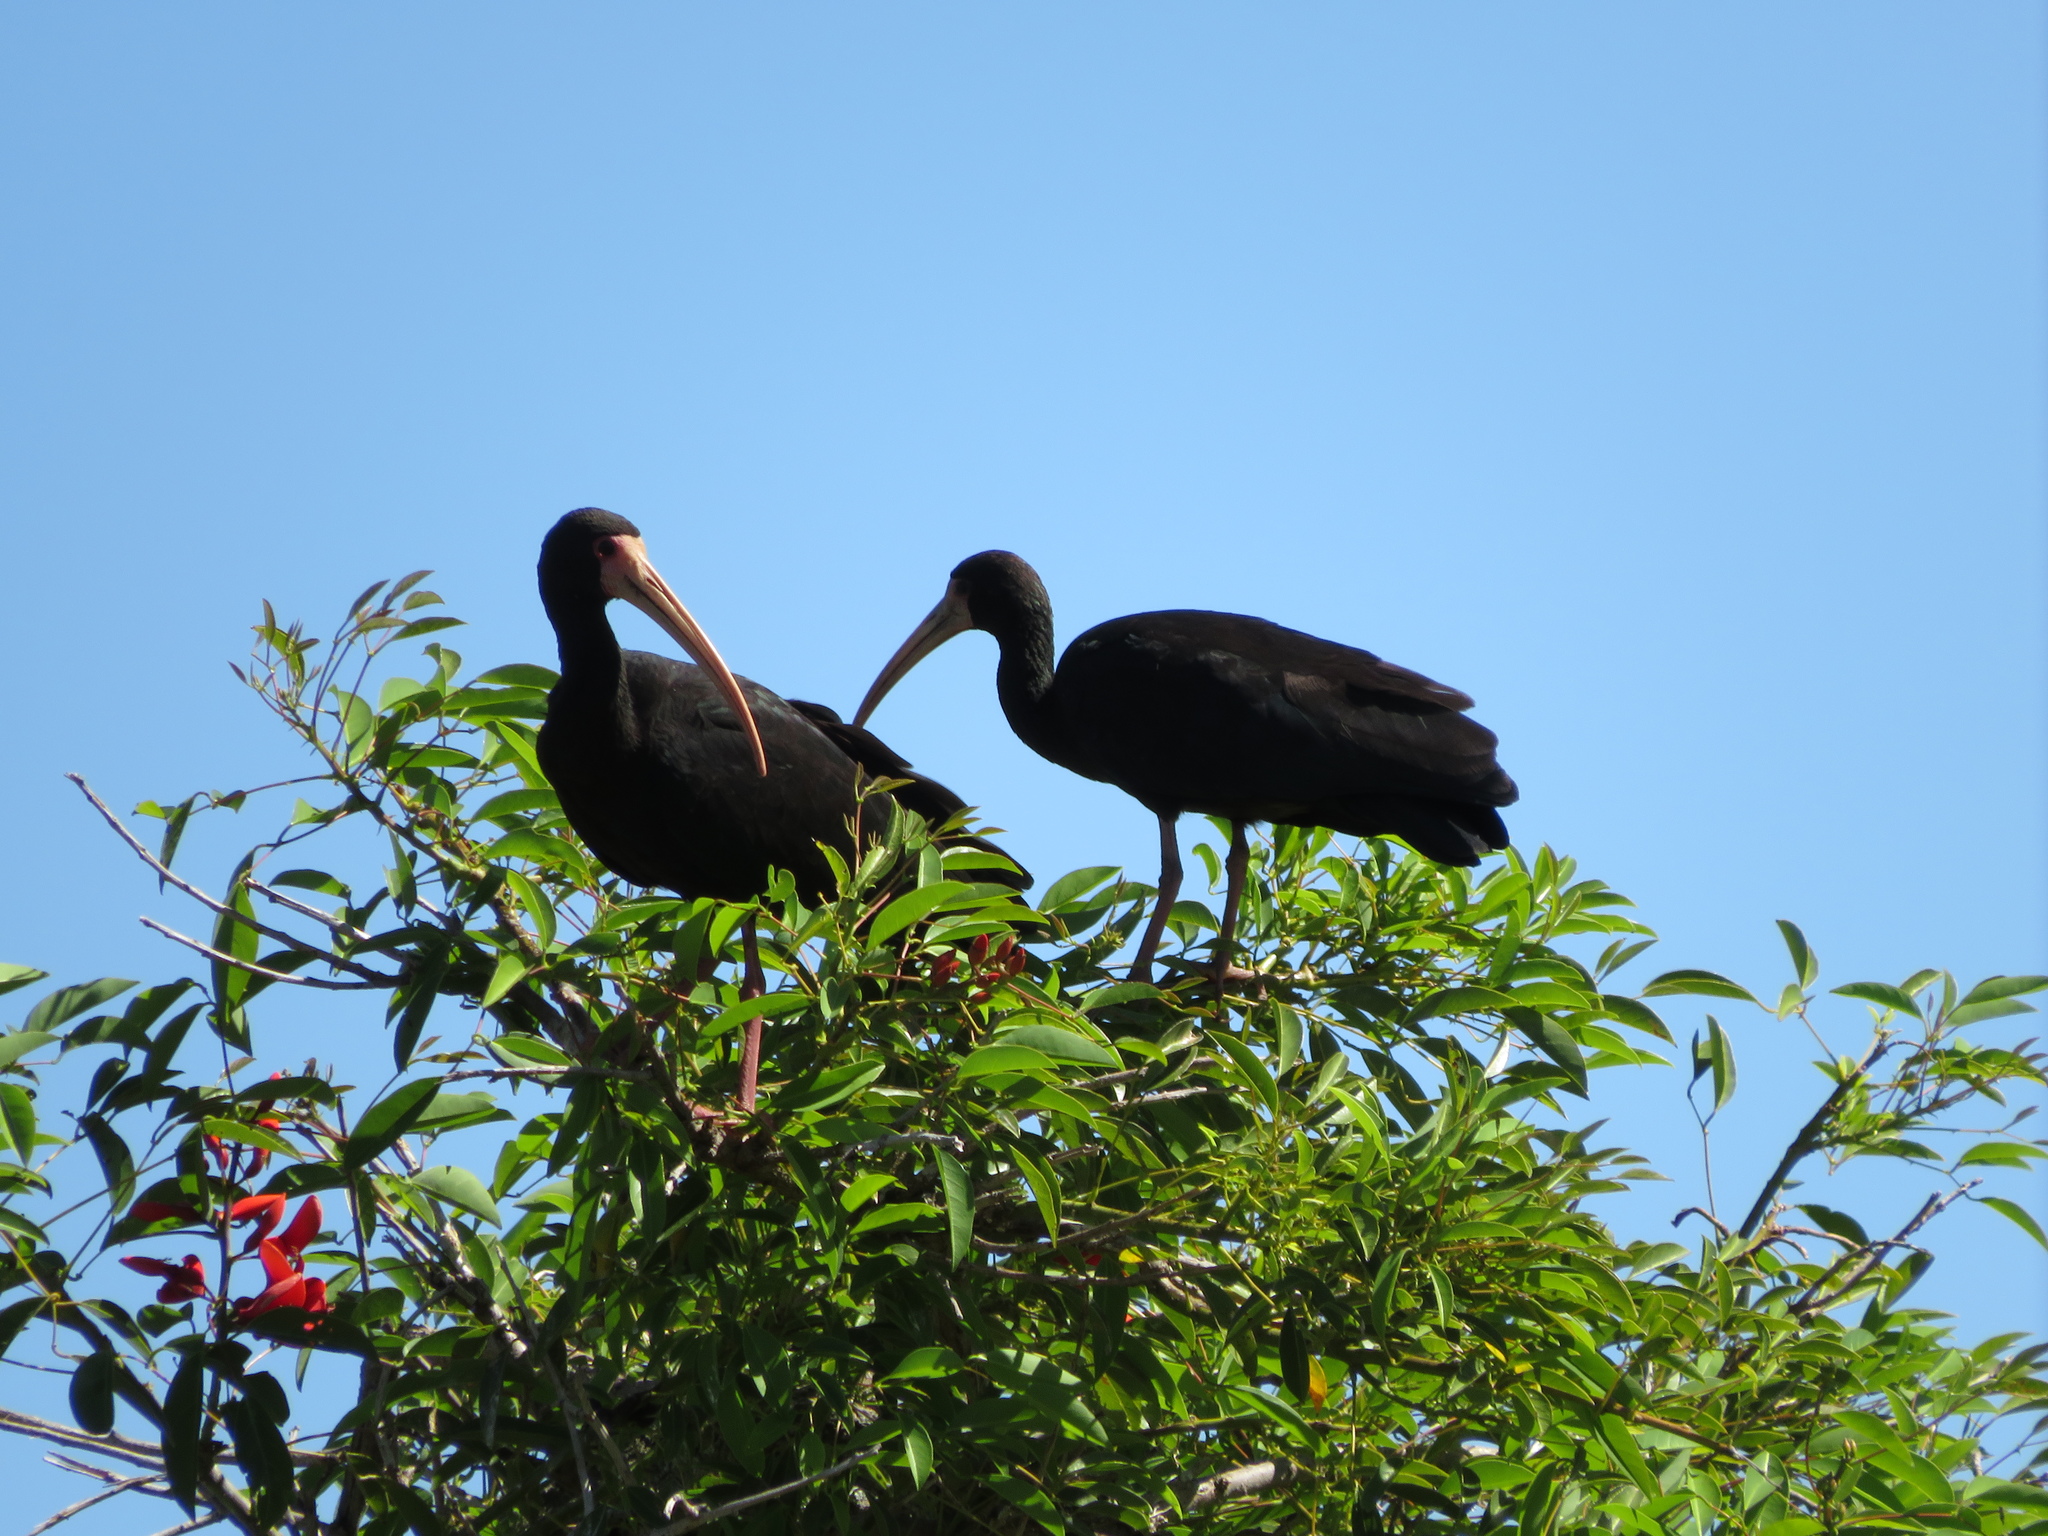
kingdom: Animalia
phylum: Chordata
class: Aves
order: Pelecaniformes
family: Threskiornithidae
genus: Phimosus
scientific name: Phimosus infuscatus
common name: Bare-faced ibis
